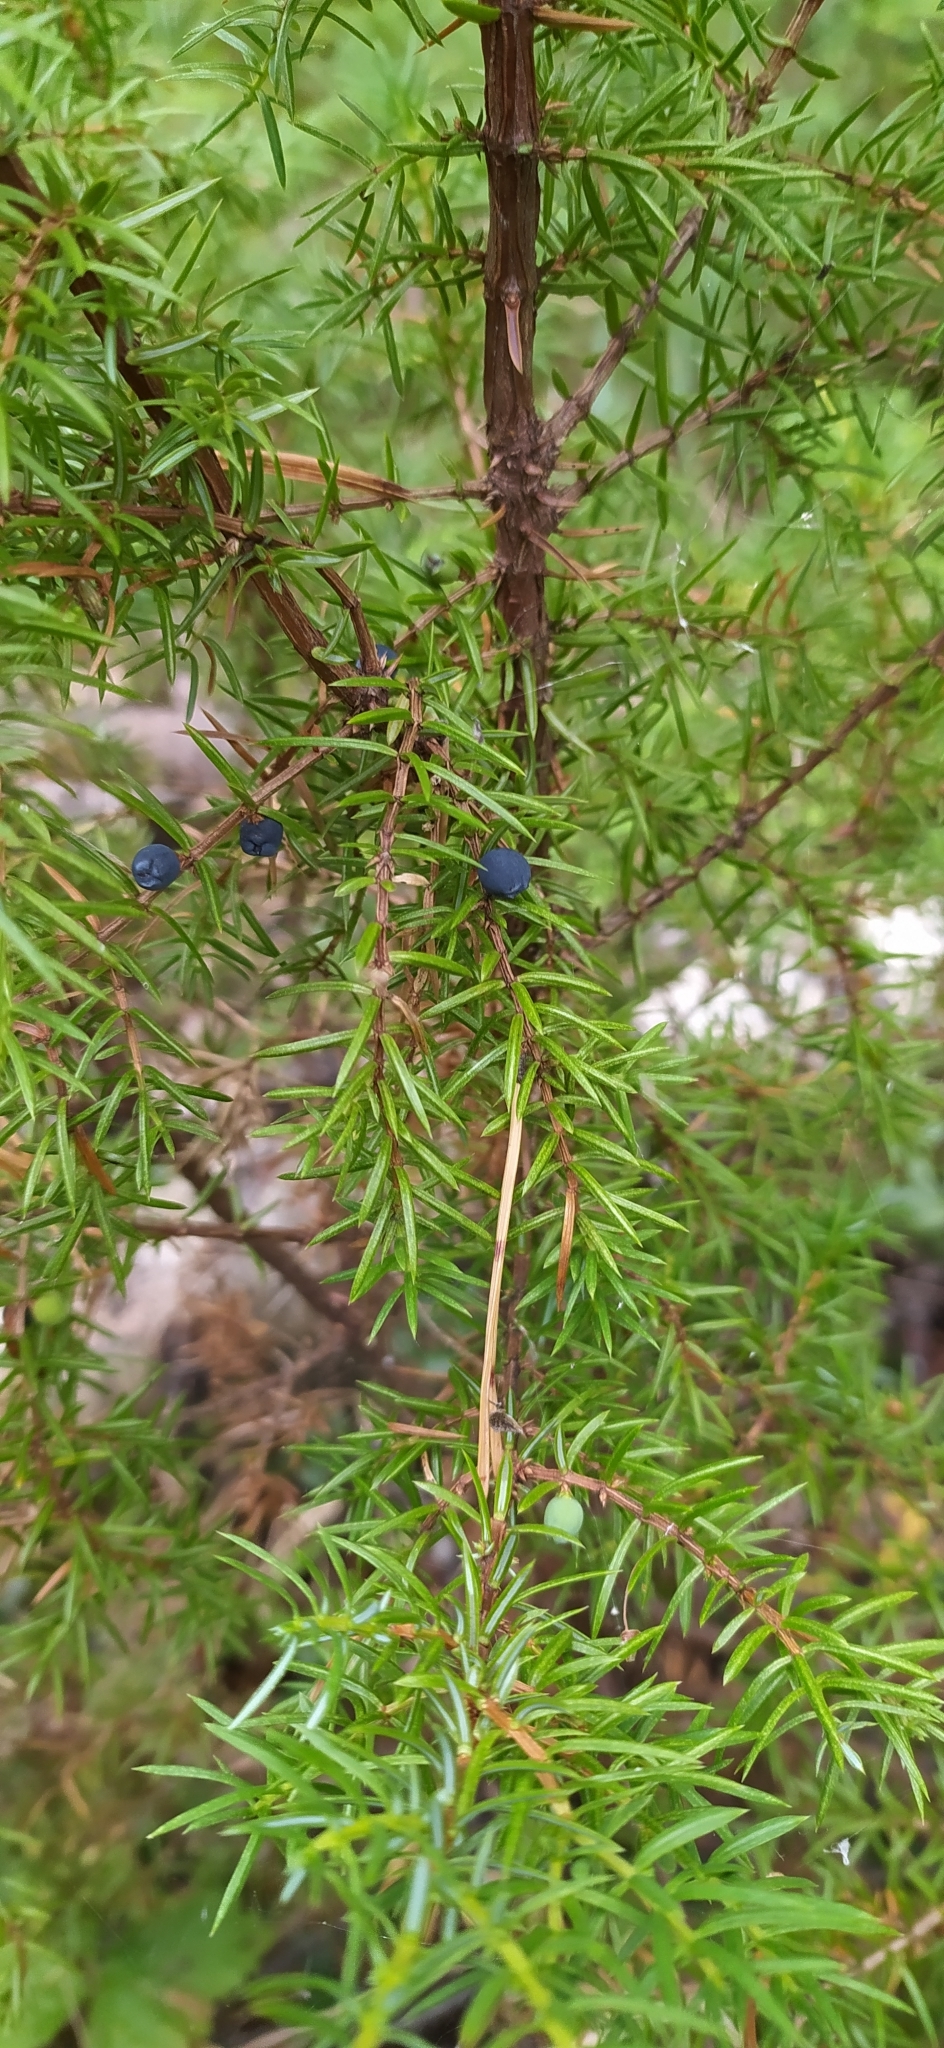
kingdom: Plantae
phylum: Tracheophyta
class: Pinopsida
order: Pinales
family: Cupressaceae
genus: Juniperus
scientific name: Juniperus communis
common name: Common juniper
